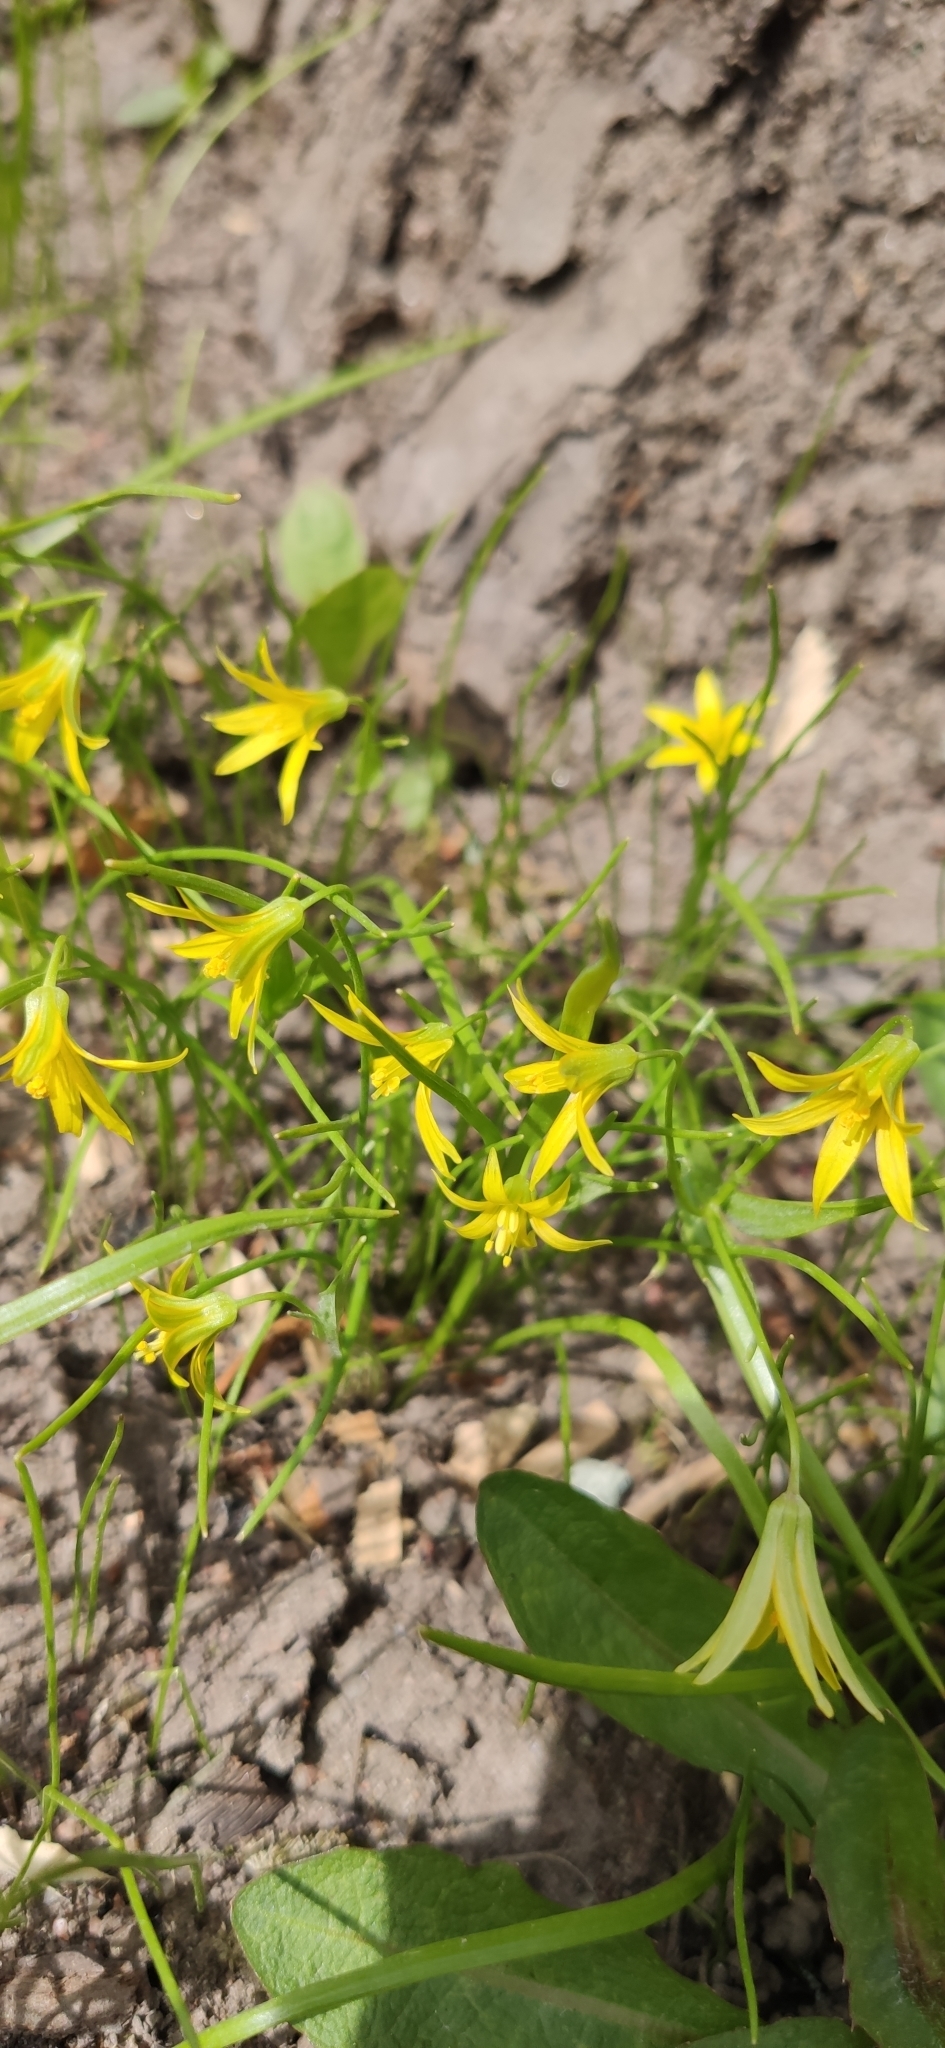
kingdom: Plantae
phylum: Tracheophyta
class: Liliopsida
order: Liliales
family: Liliaceae
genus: Gagea
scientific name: Gagea minima
